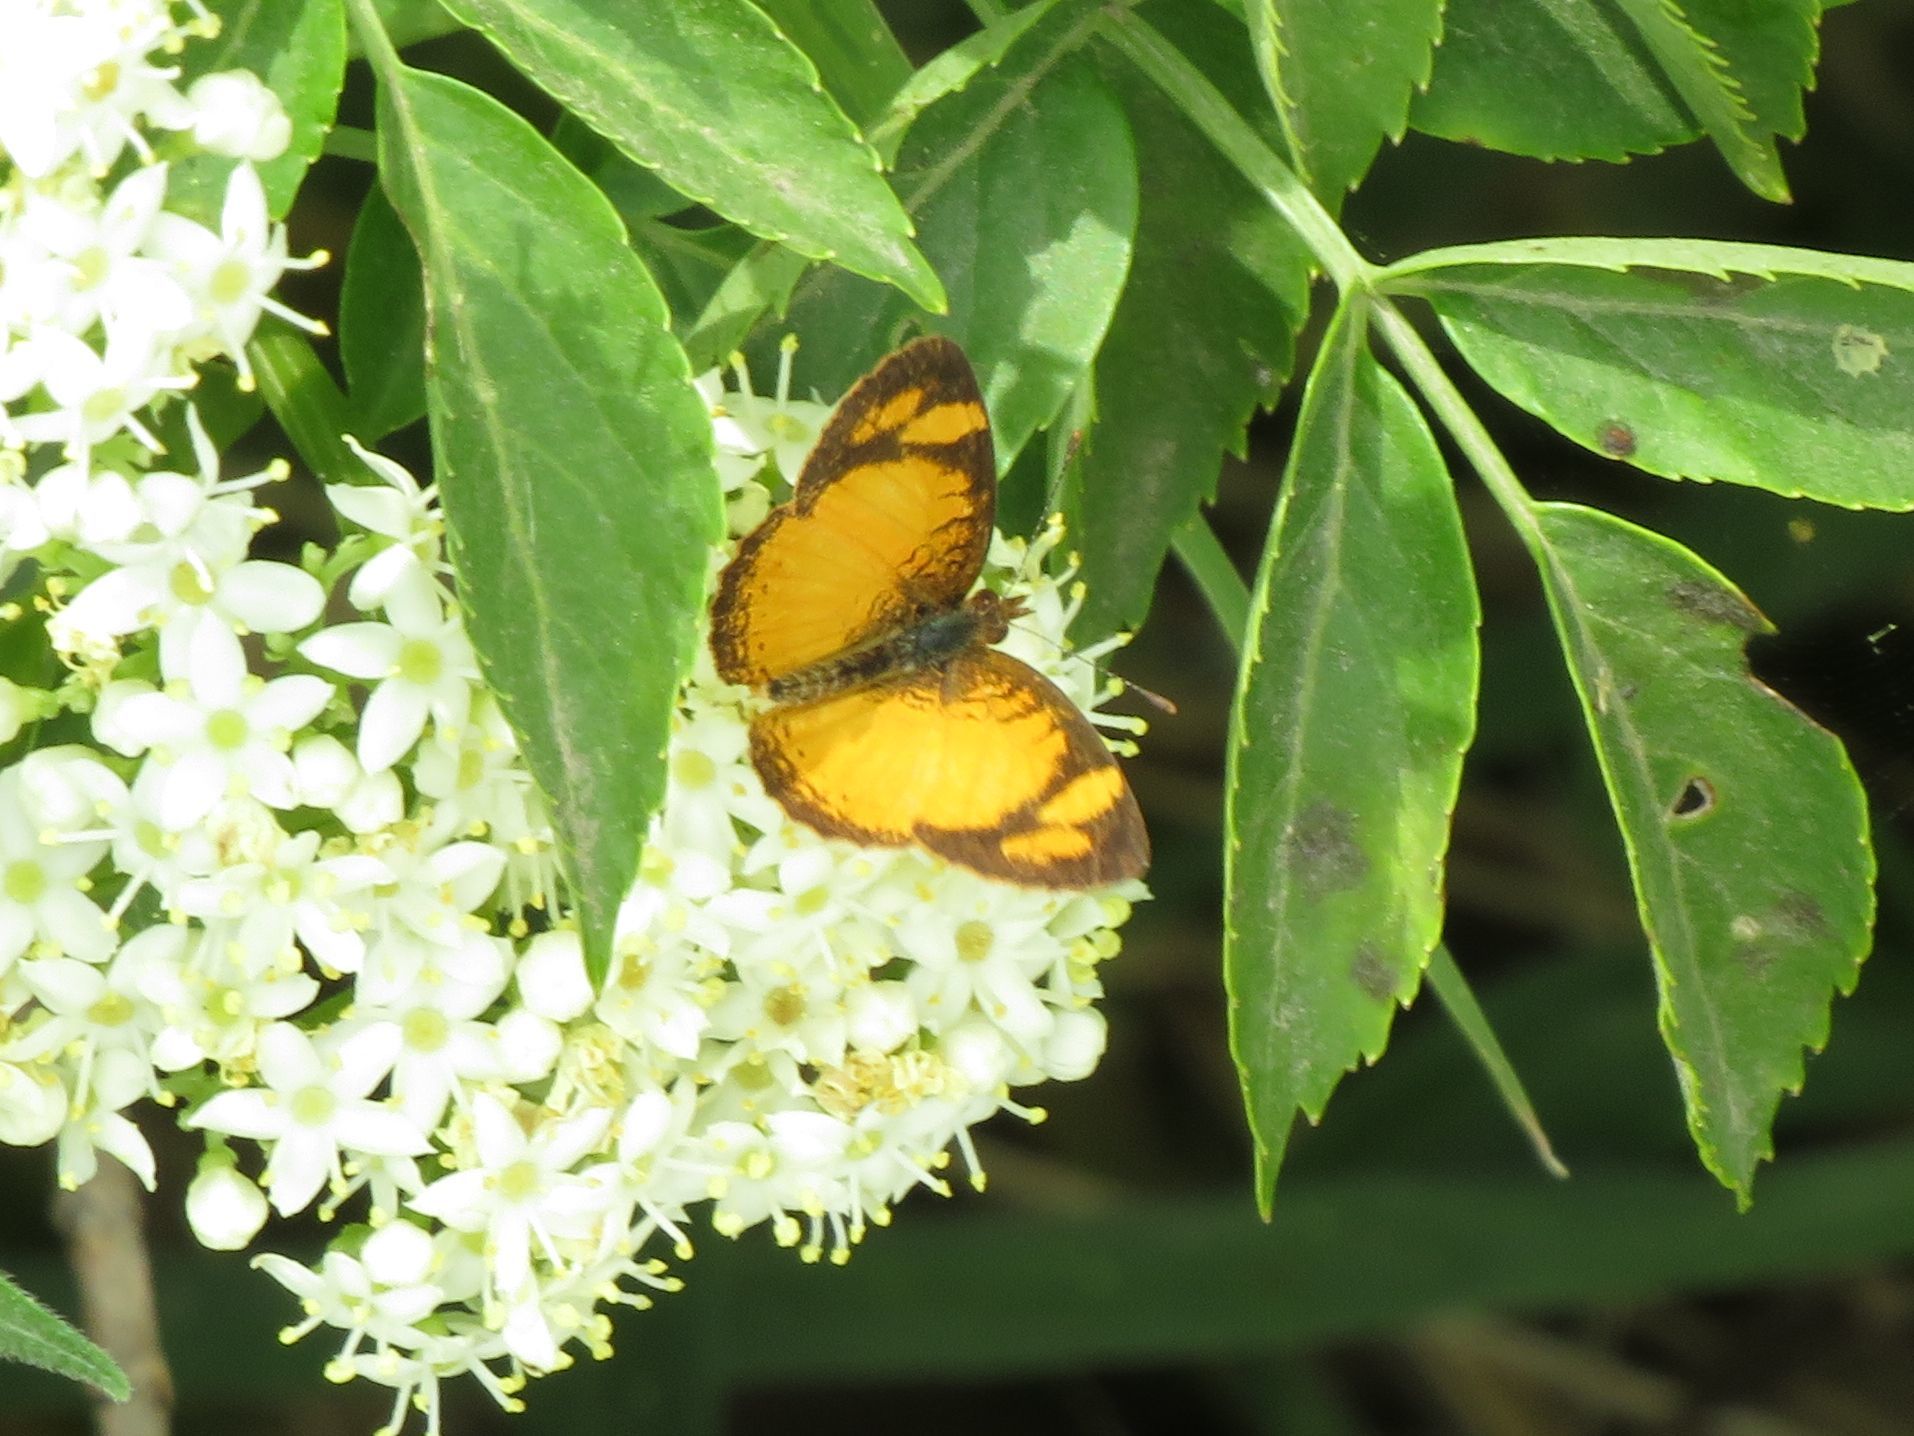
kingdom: Animalia
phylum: Arthropoda
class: Insecta
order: Lepidoptera
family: Nymphalidae
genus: Tegosa
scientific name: Tegosa claudina
